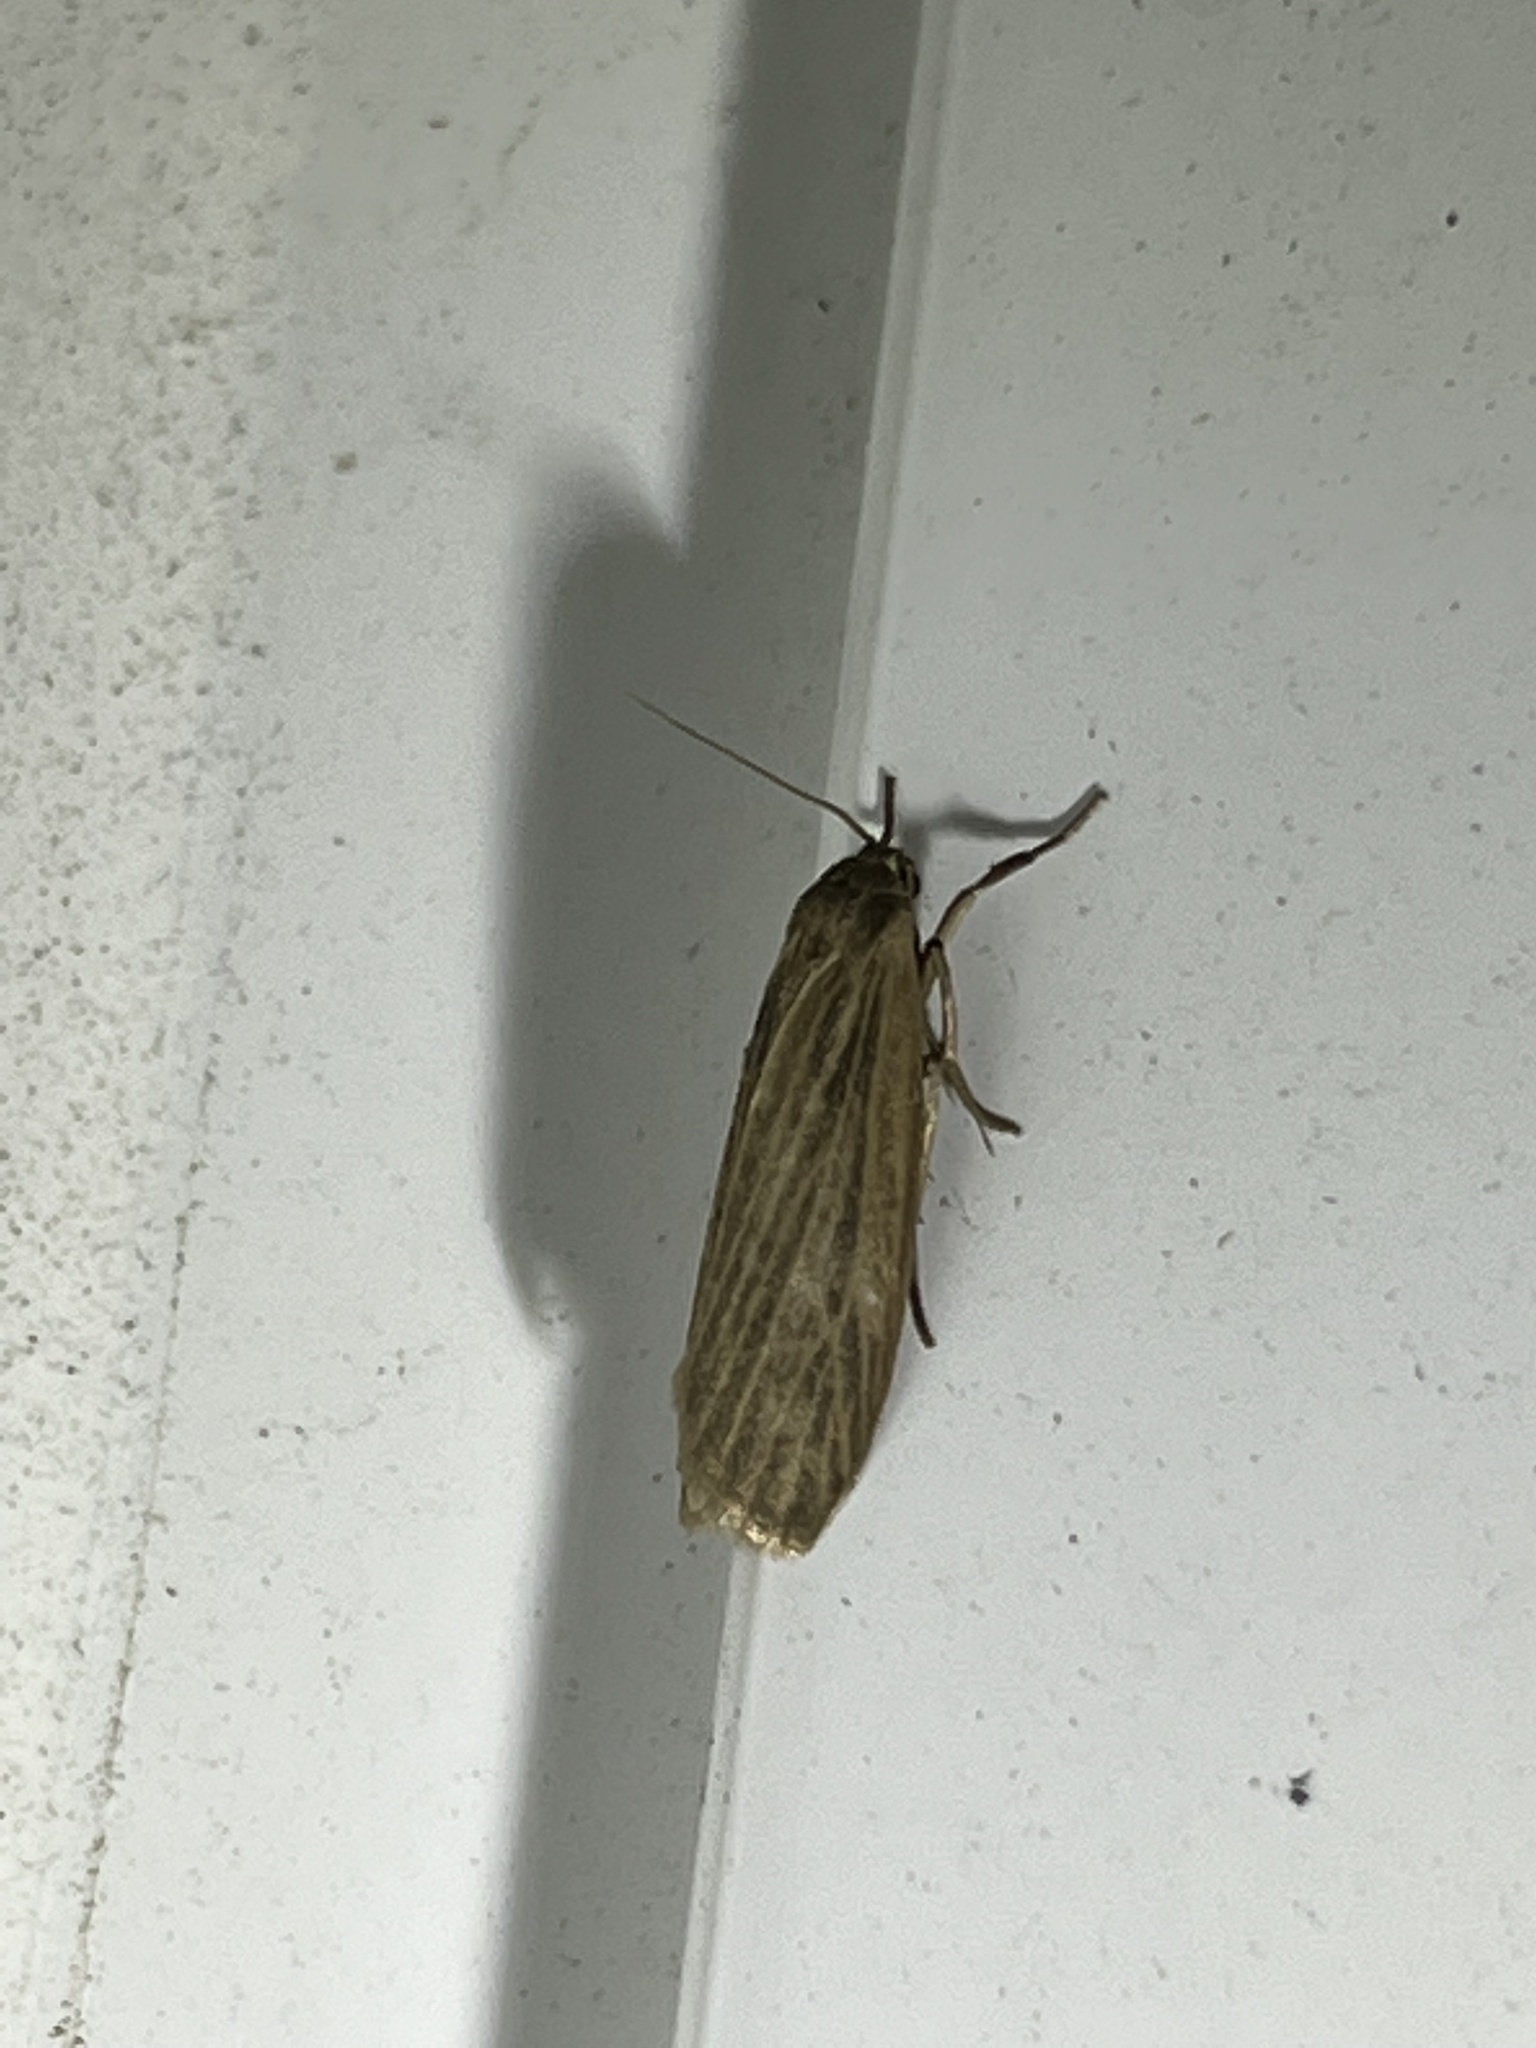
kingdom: Animalia
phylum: Arthropoda
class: Insecta
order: Lepidoptera
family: Erebidae
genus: Crambidia
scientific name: Crambidia pallida
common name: Pale lichen moth
